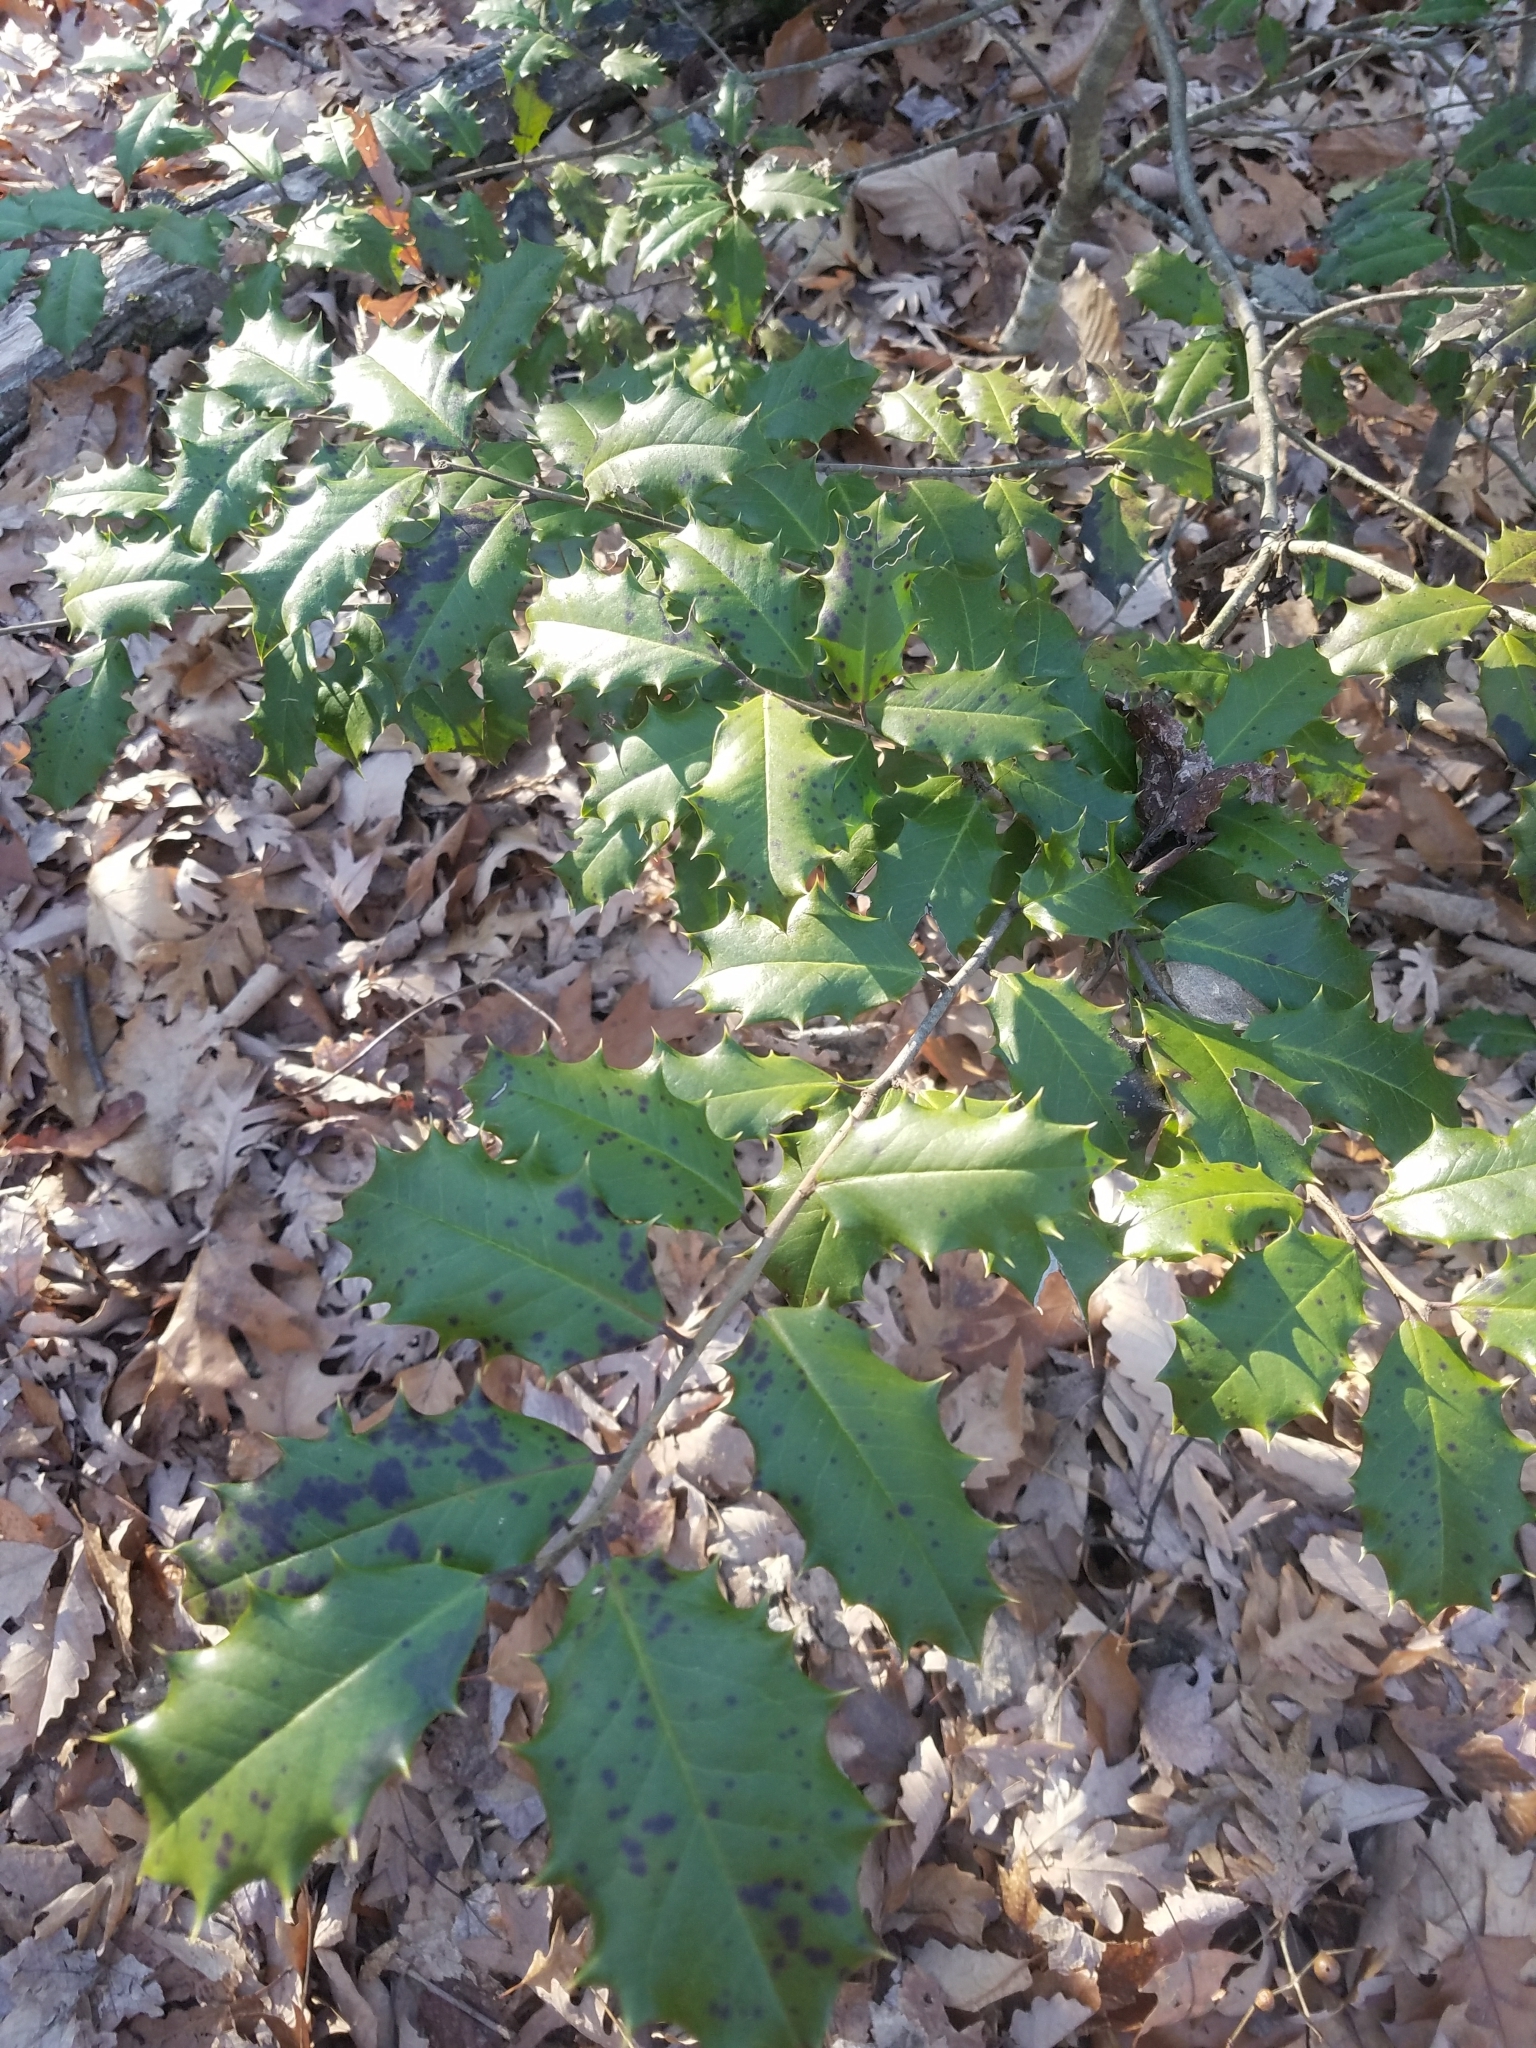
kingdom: Plantae
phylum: Tracheophyta
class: Magnoliopsida
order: Aquifoliales
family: Aquifoliaceae
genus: Ilex
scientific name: Ilex opaca
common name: American holly
